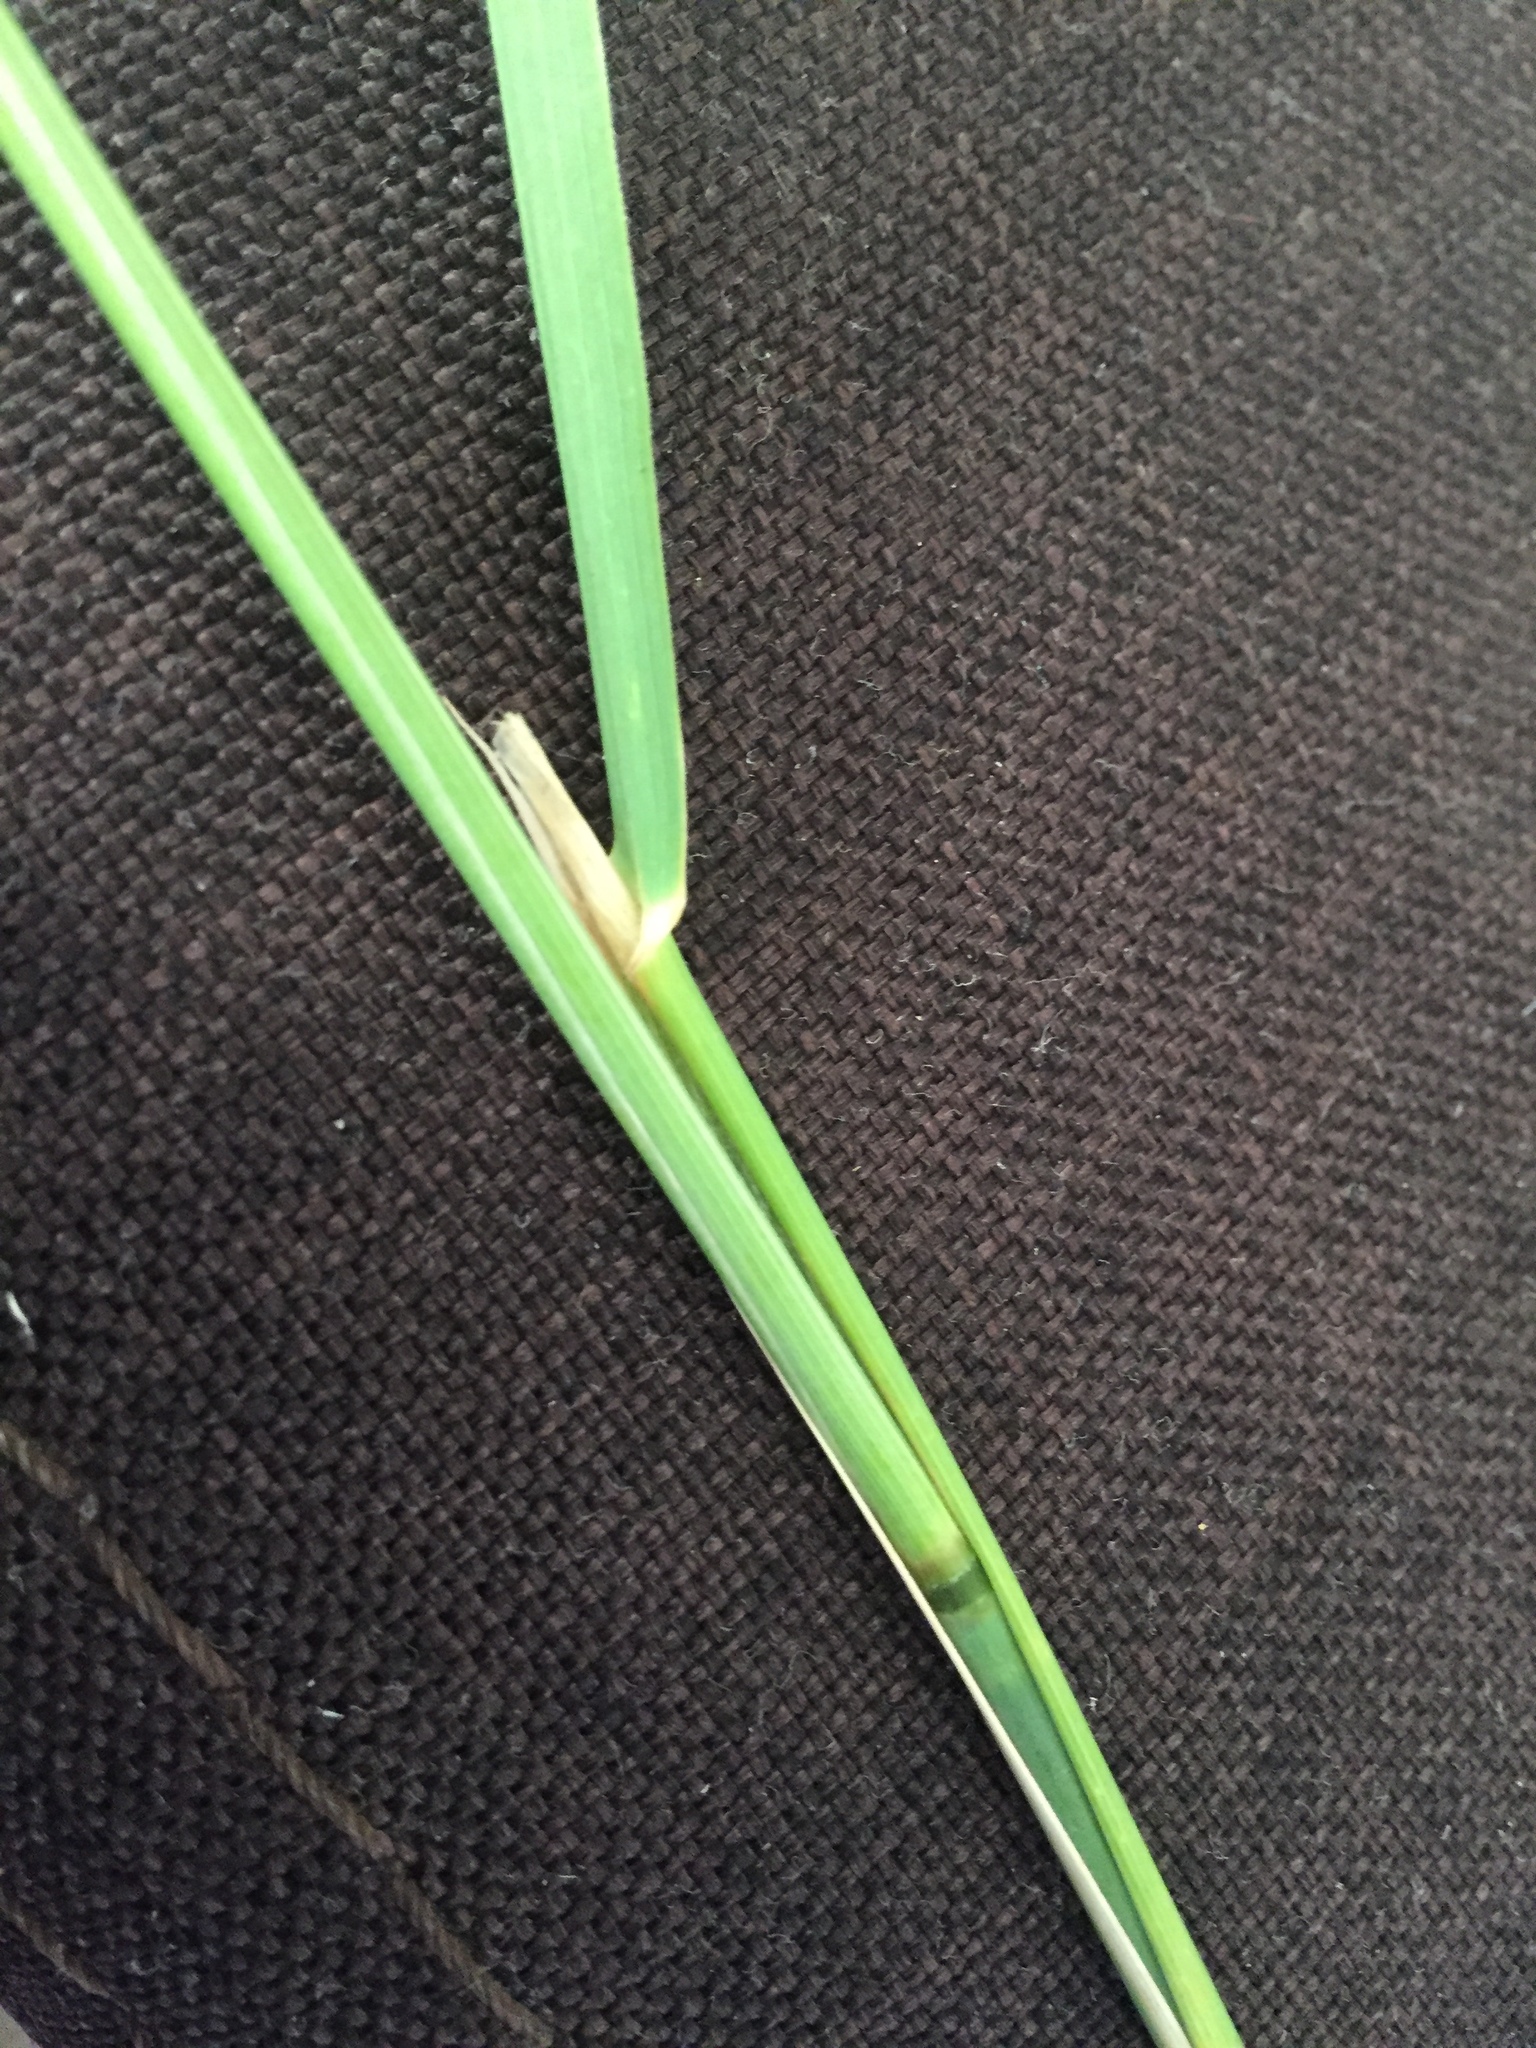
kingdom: Plantae
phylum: Tracheophyta
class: Liliopsida
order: Poales
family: Poaceae
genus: Calamagrostis
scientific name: Calamagrostis epigejos
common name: Wood small-reed
